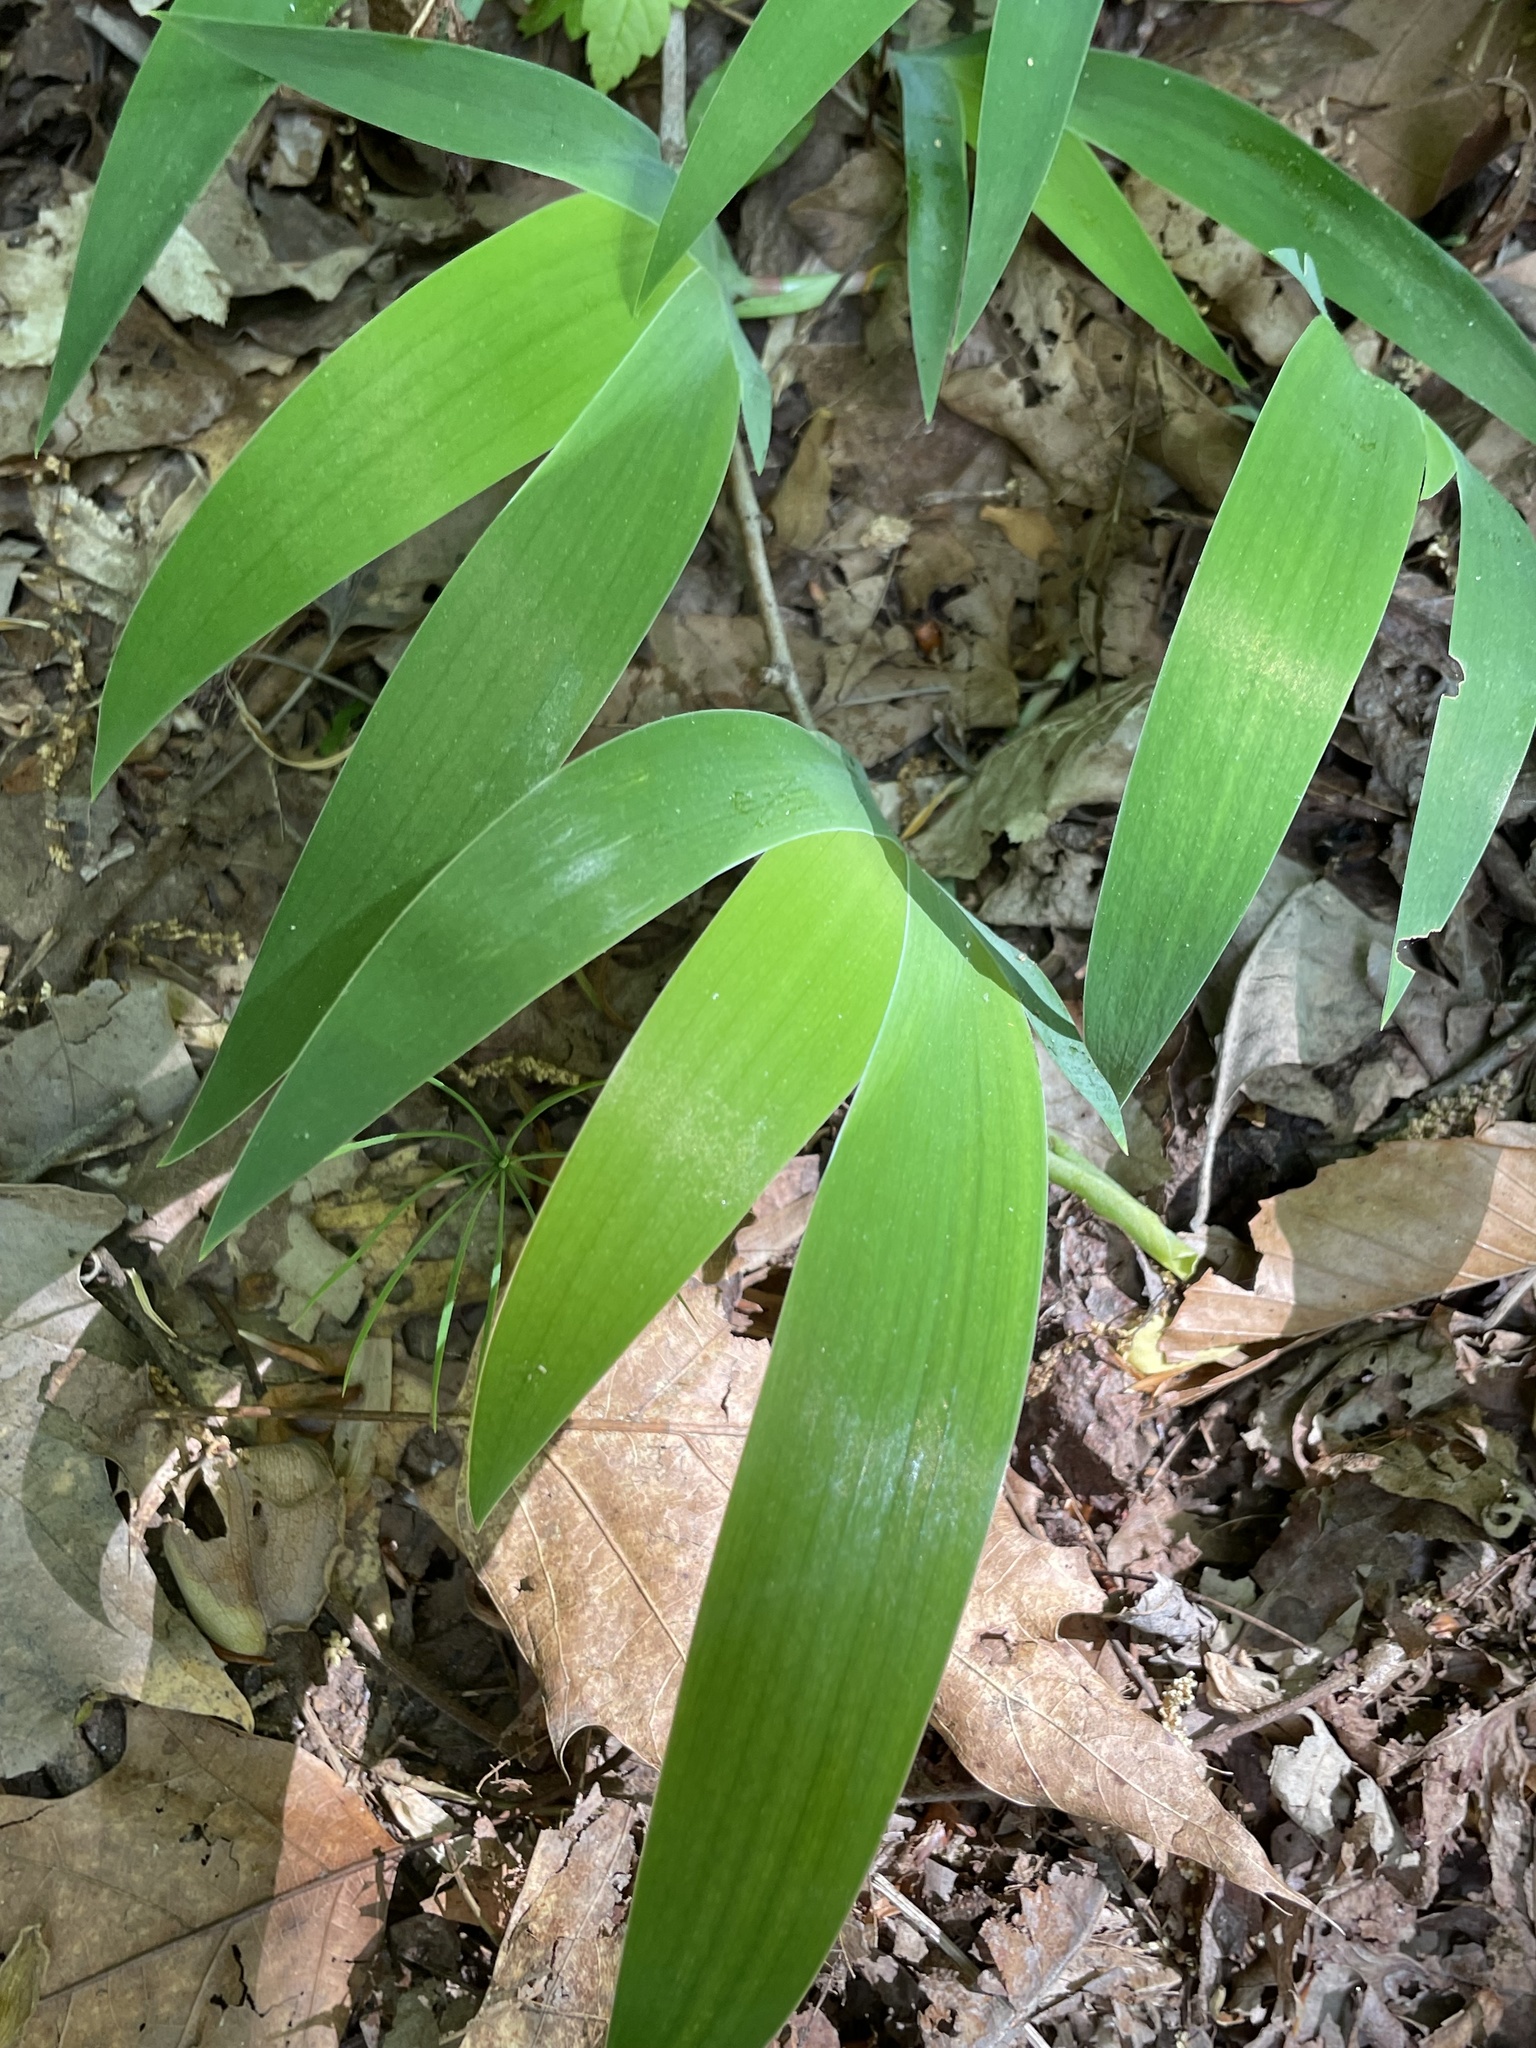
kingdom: Plantae
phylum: Tracheophyta
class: Liliopsida
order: Asparagales
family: Iridaceae
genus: Iris
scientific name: Iris cristata
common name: Crested iris
